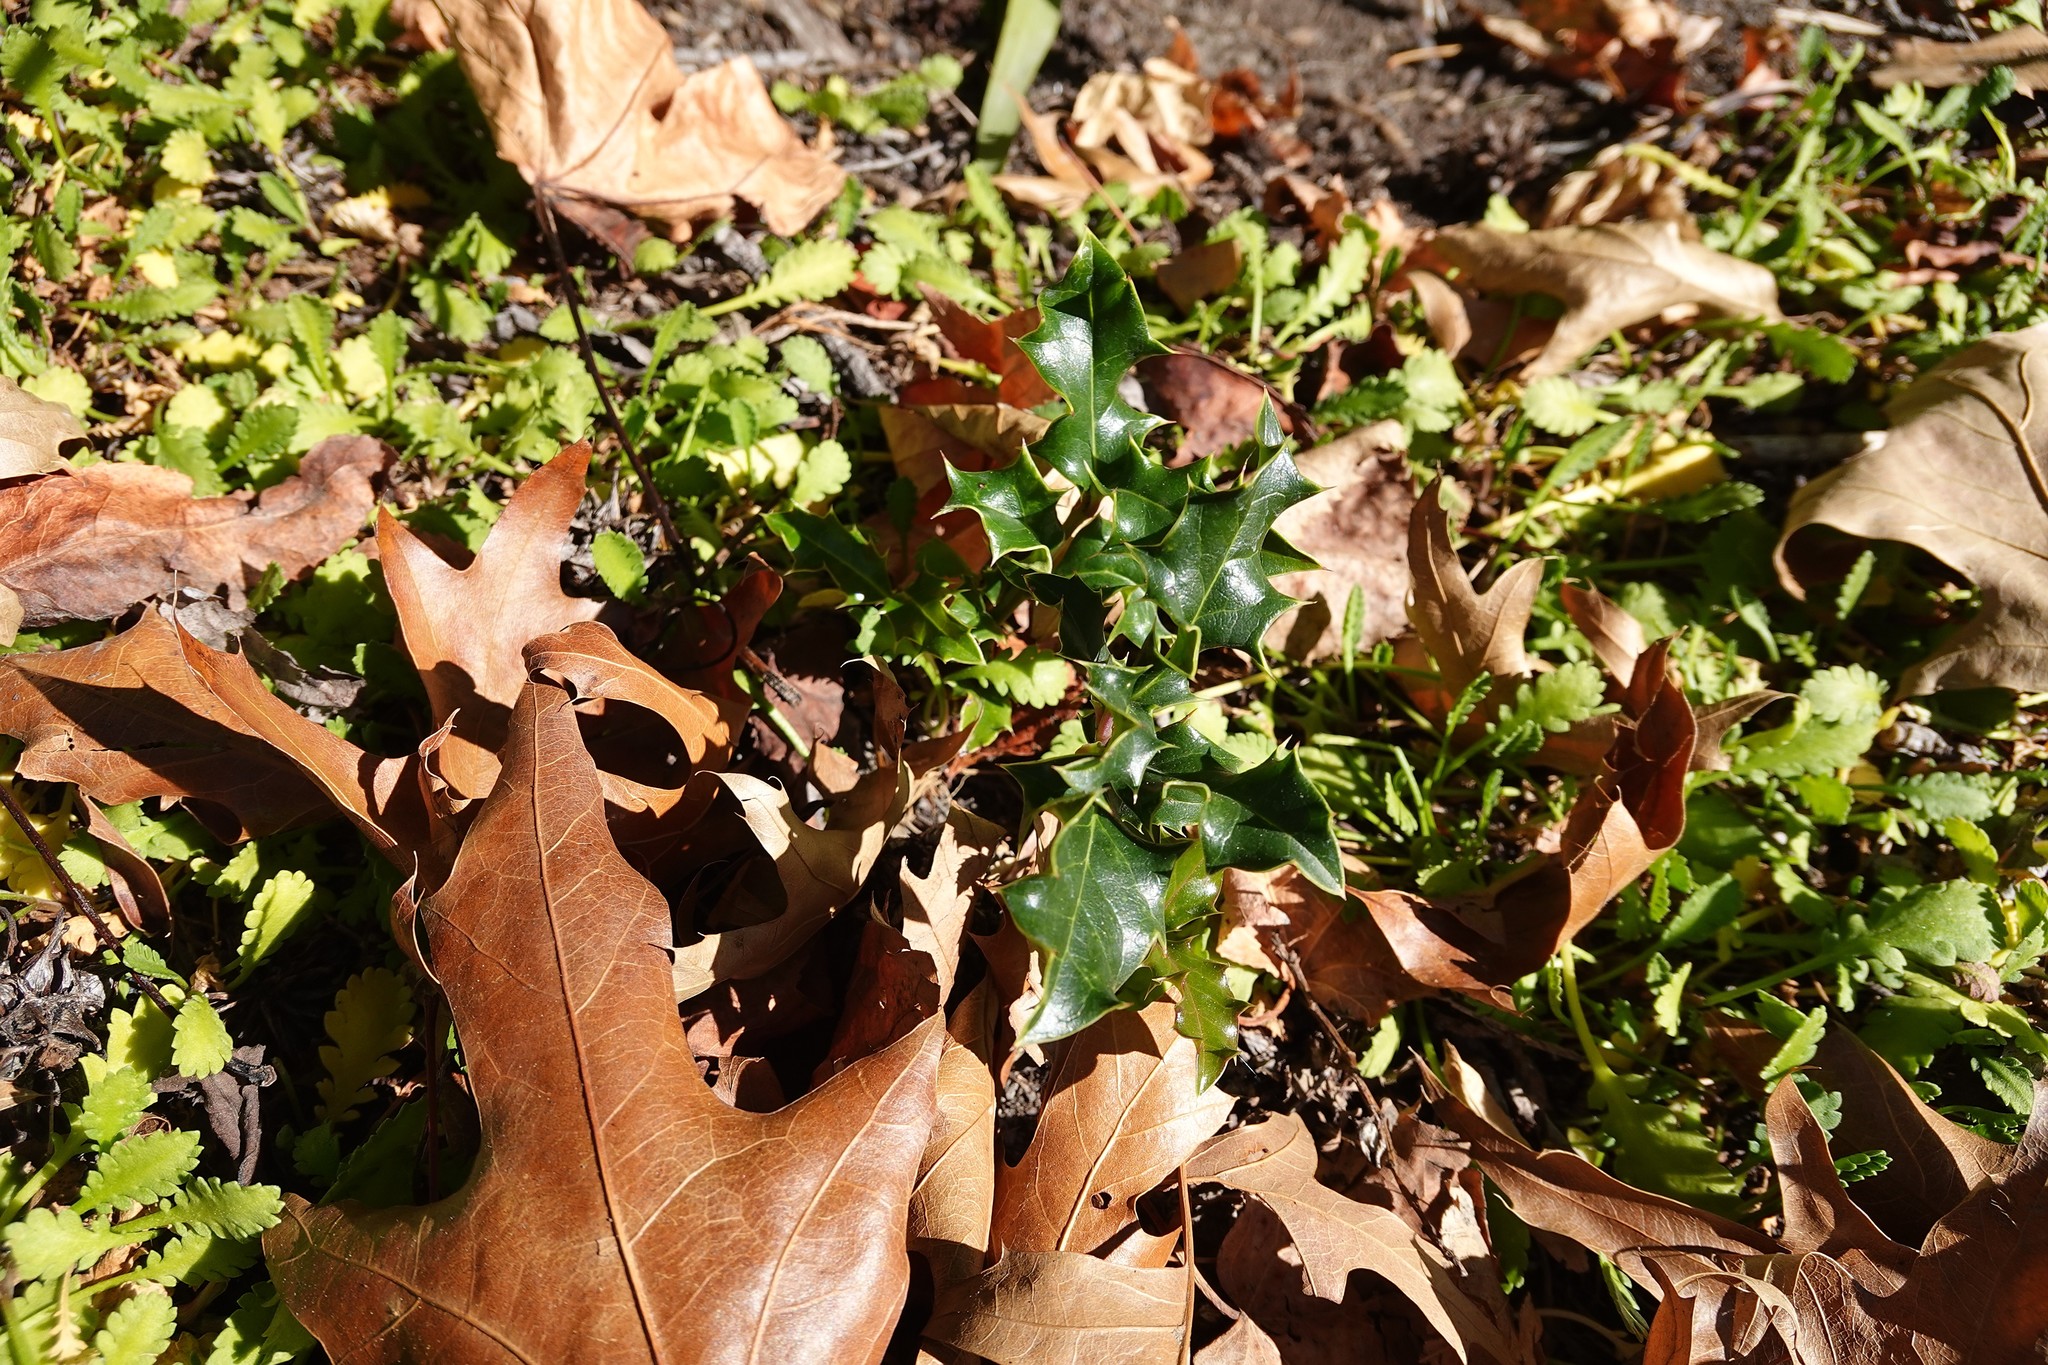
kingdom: Plantae
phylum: Tracheophyta
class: Magnoliopsida
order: Aquifoliales
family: Aquifoliaceae
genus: Ilex
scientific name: Ilex aquifolium
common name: English holly
